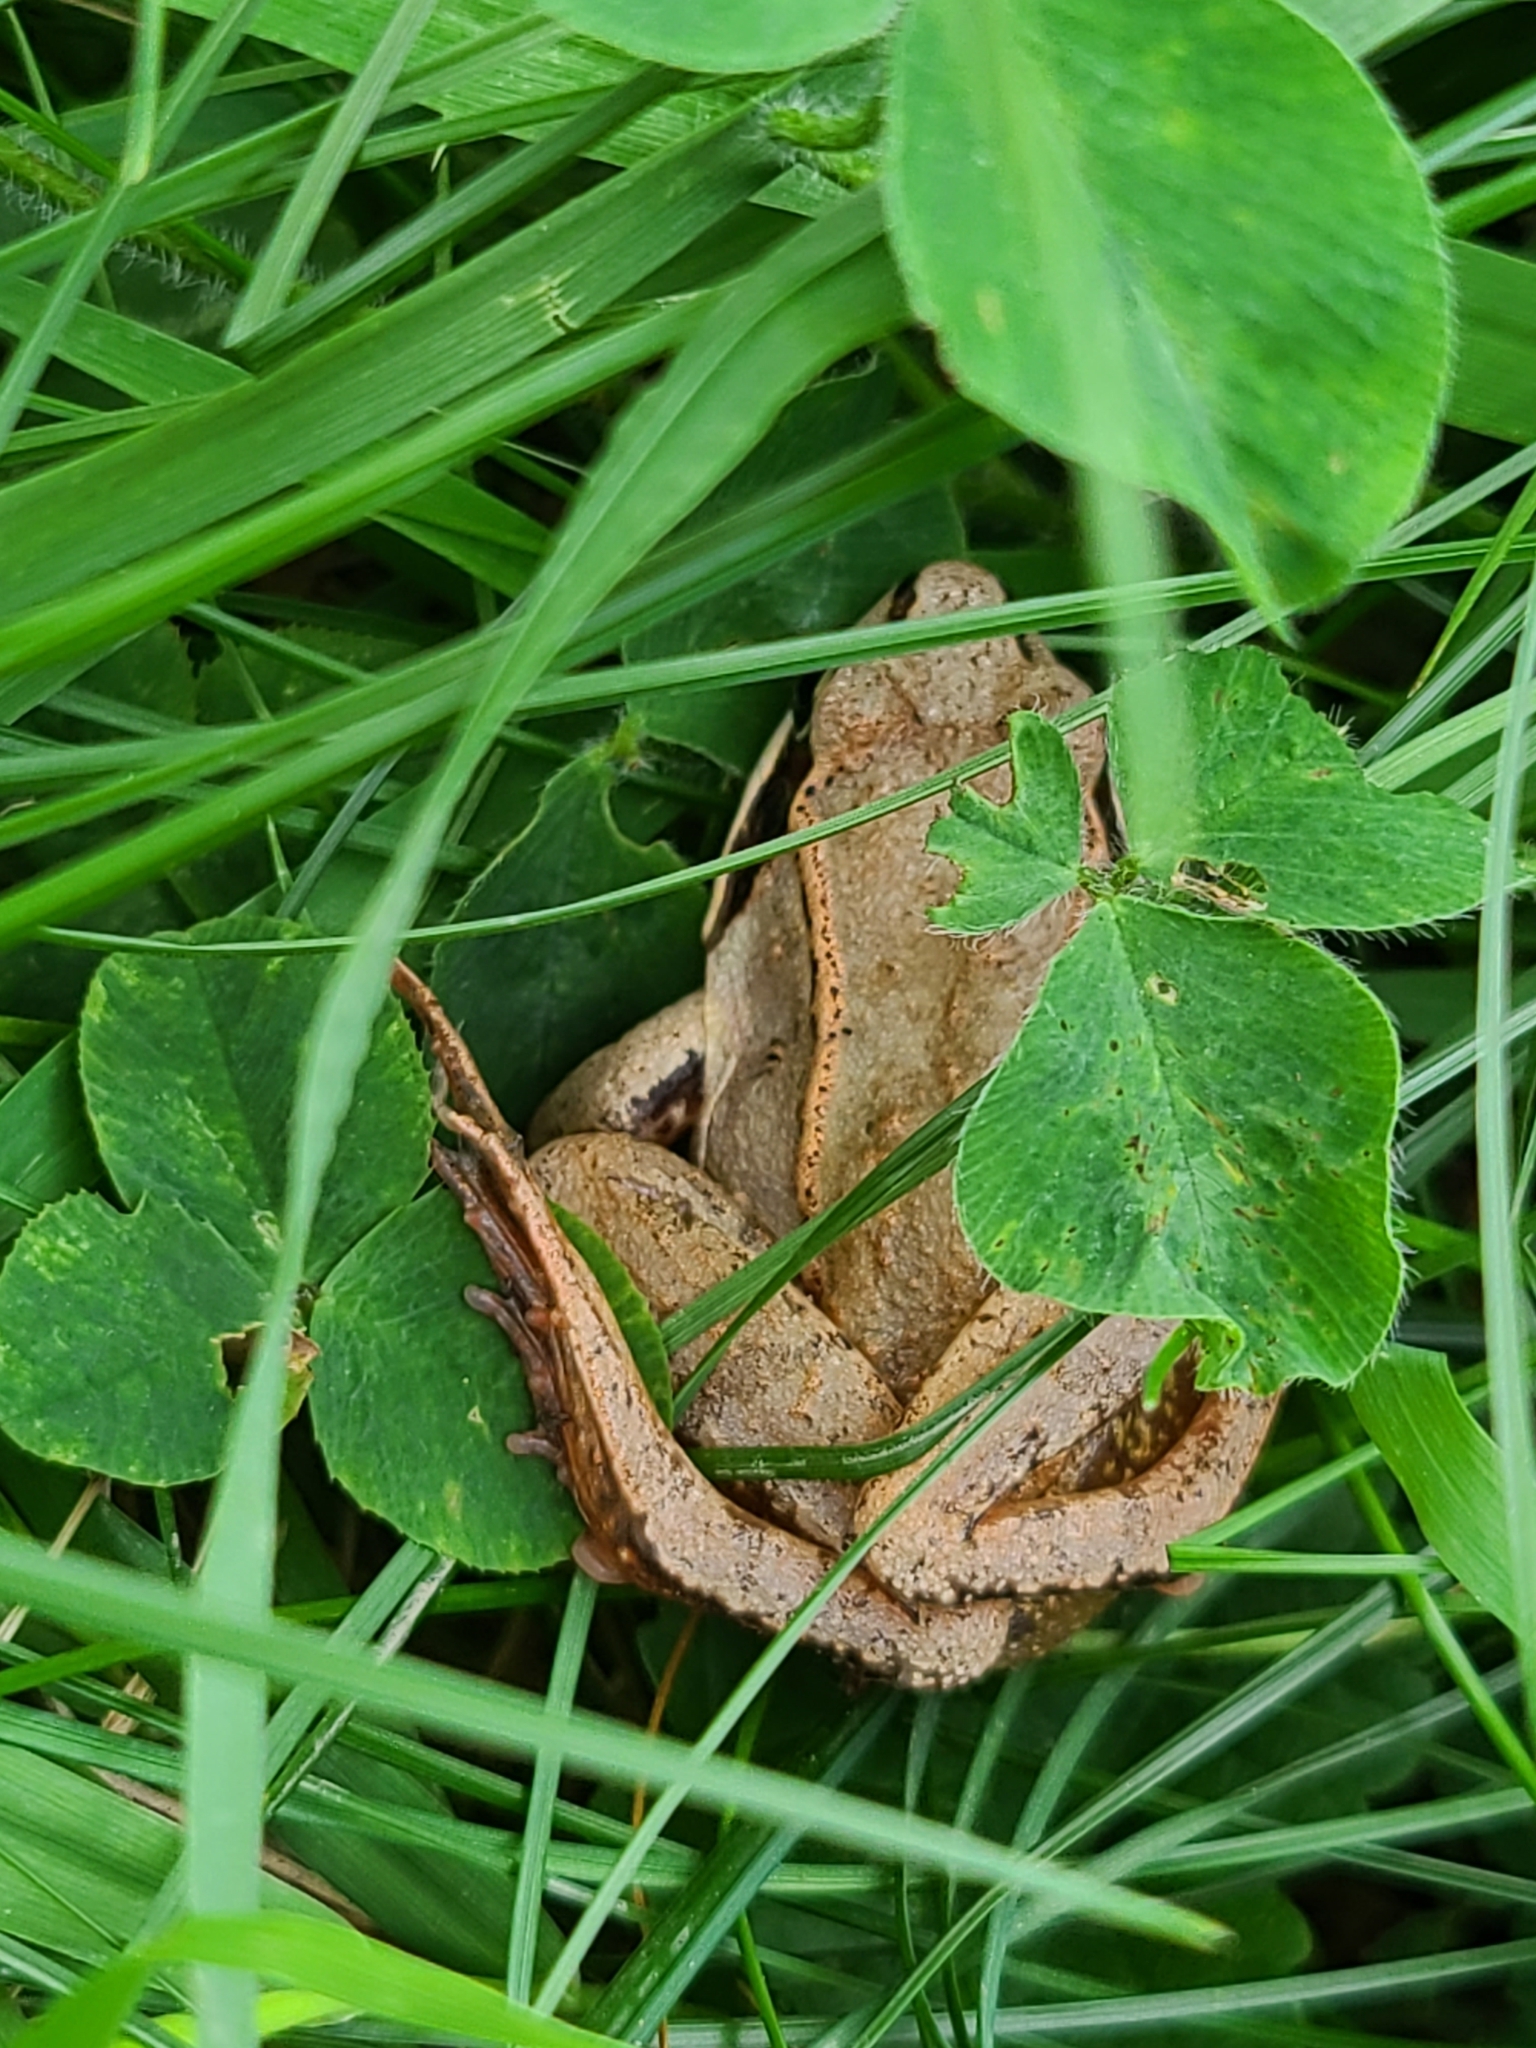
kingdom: Animalia
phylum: Chordata
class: Amphibia
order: Anura
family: Ranidae
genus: Lithobates
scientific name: Lithobates sylvaticus
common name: Wood frog
